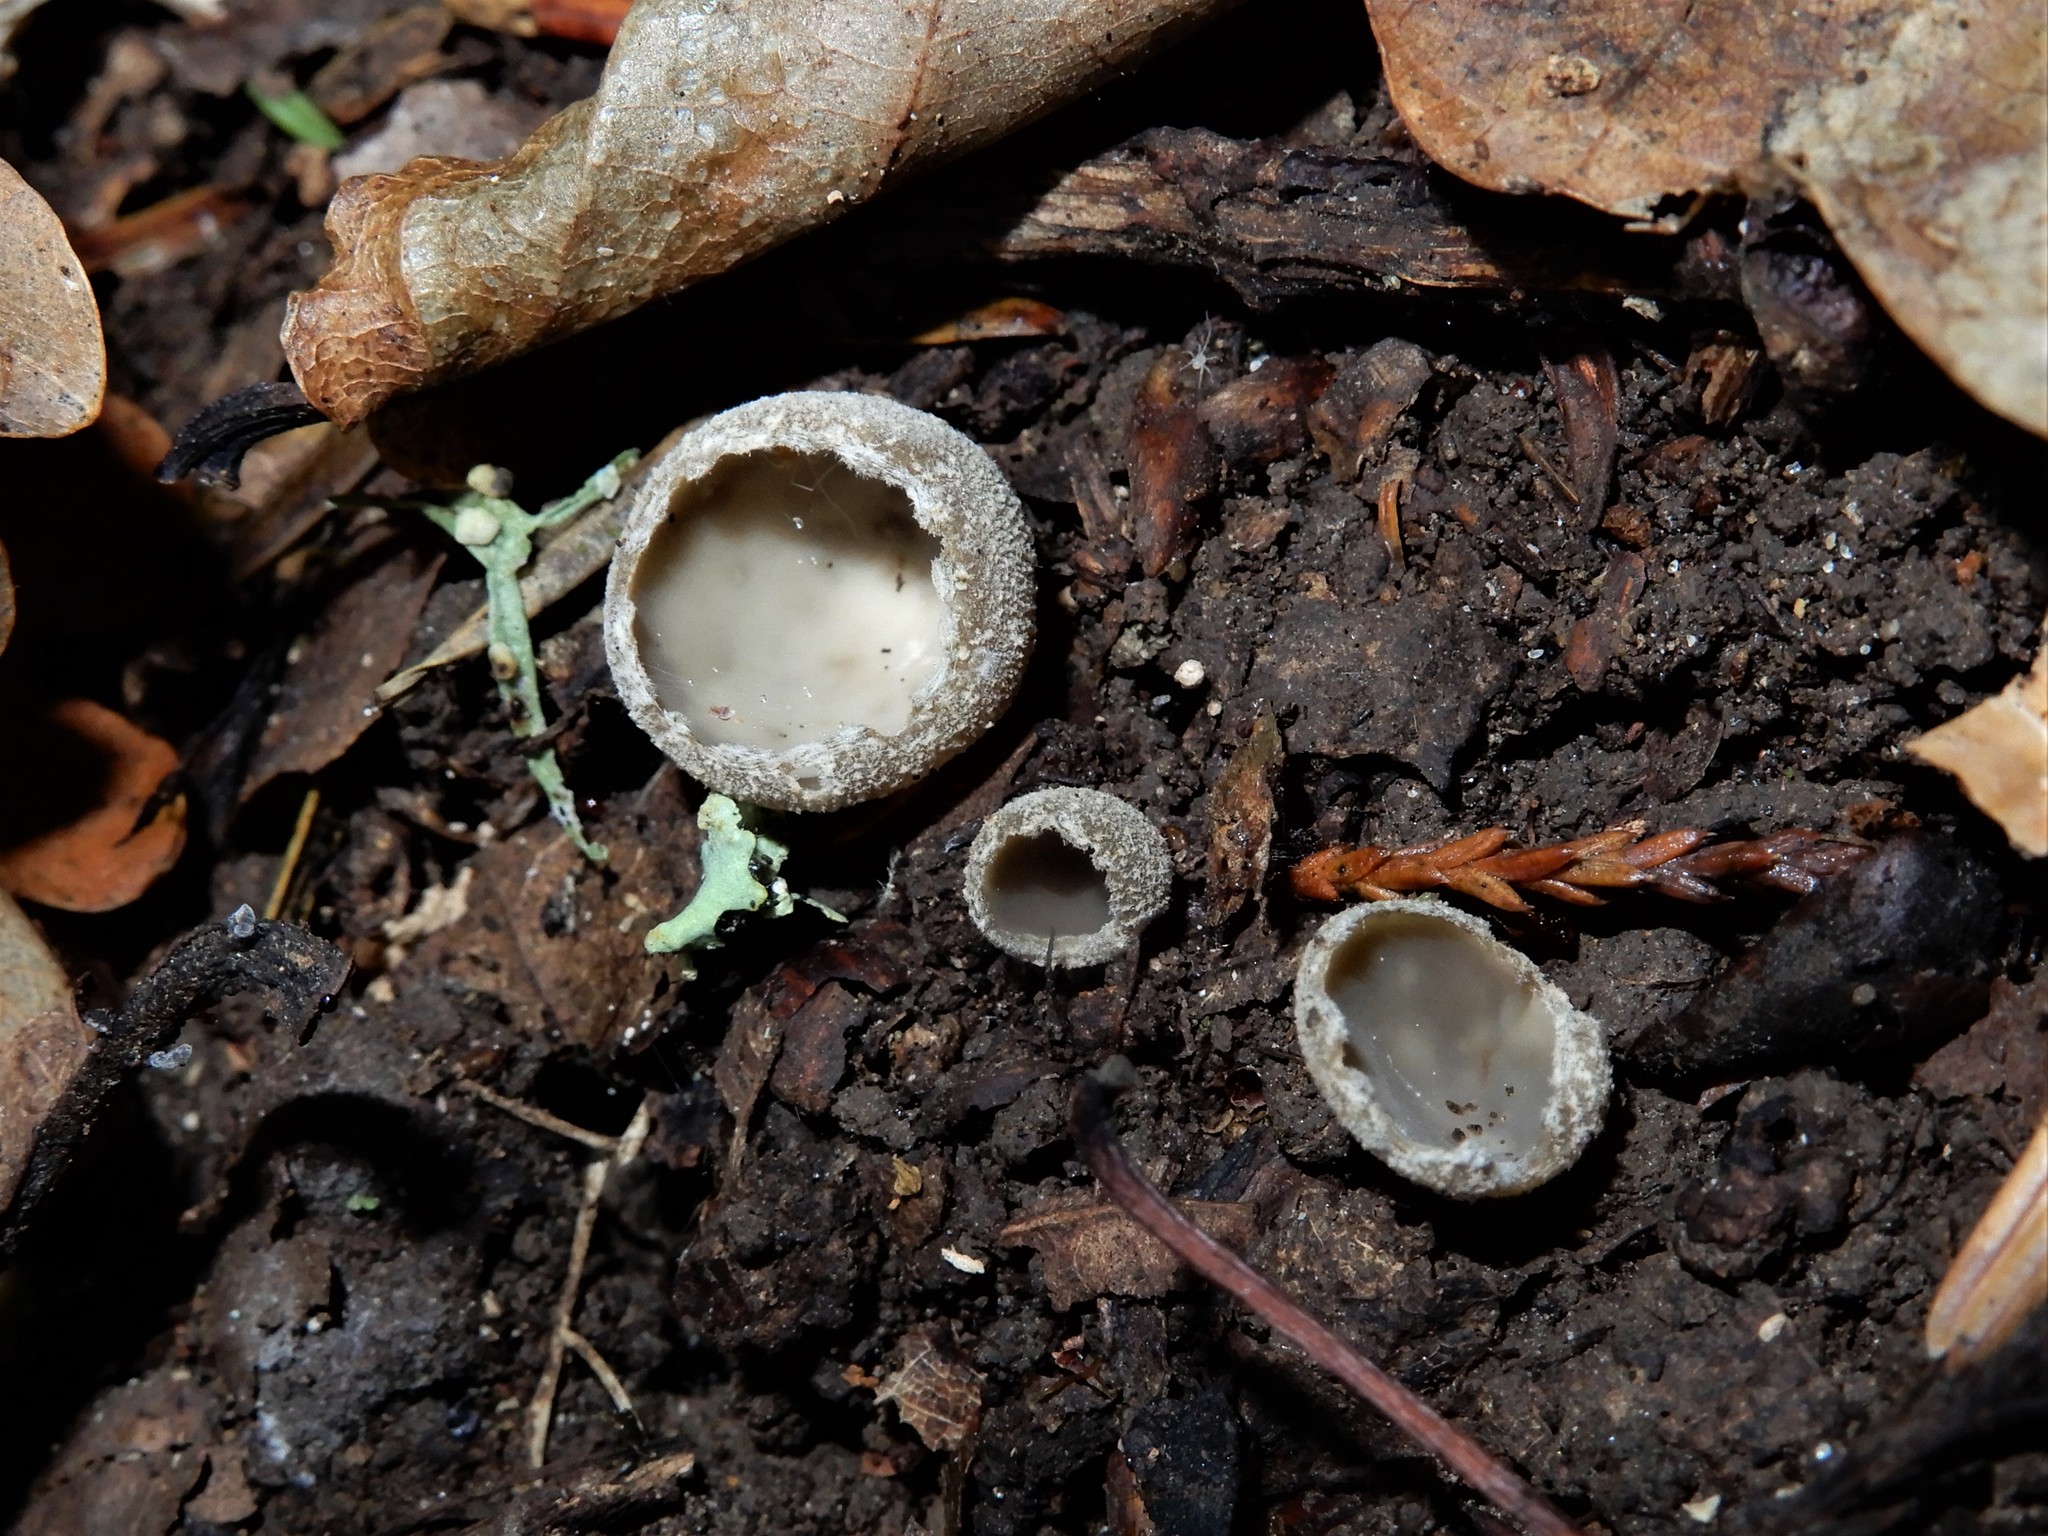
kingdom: Fungi
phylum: Ascomycota
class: Pezizomycetes
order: Pezizales
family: Tarzettaceae
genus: Tarzetta
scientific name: Tarzetta
